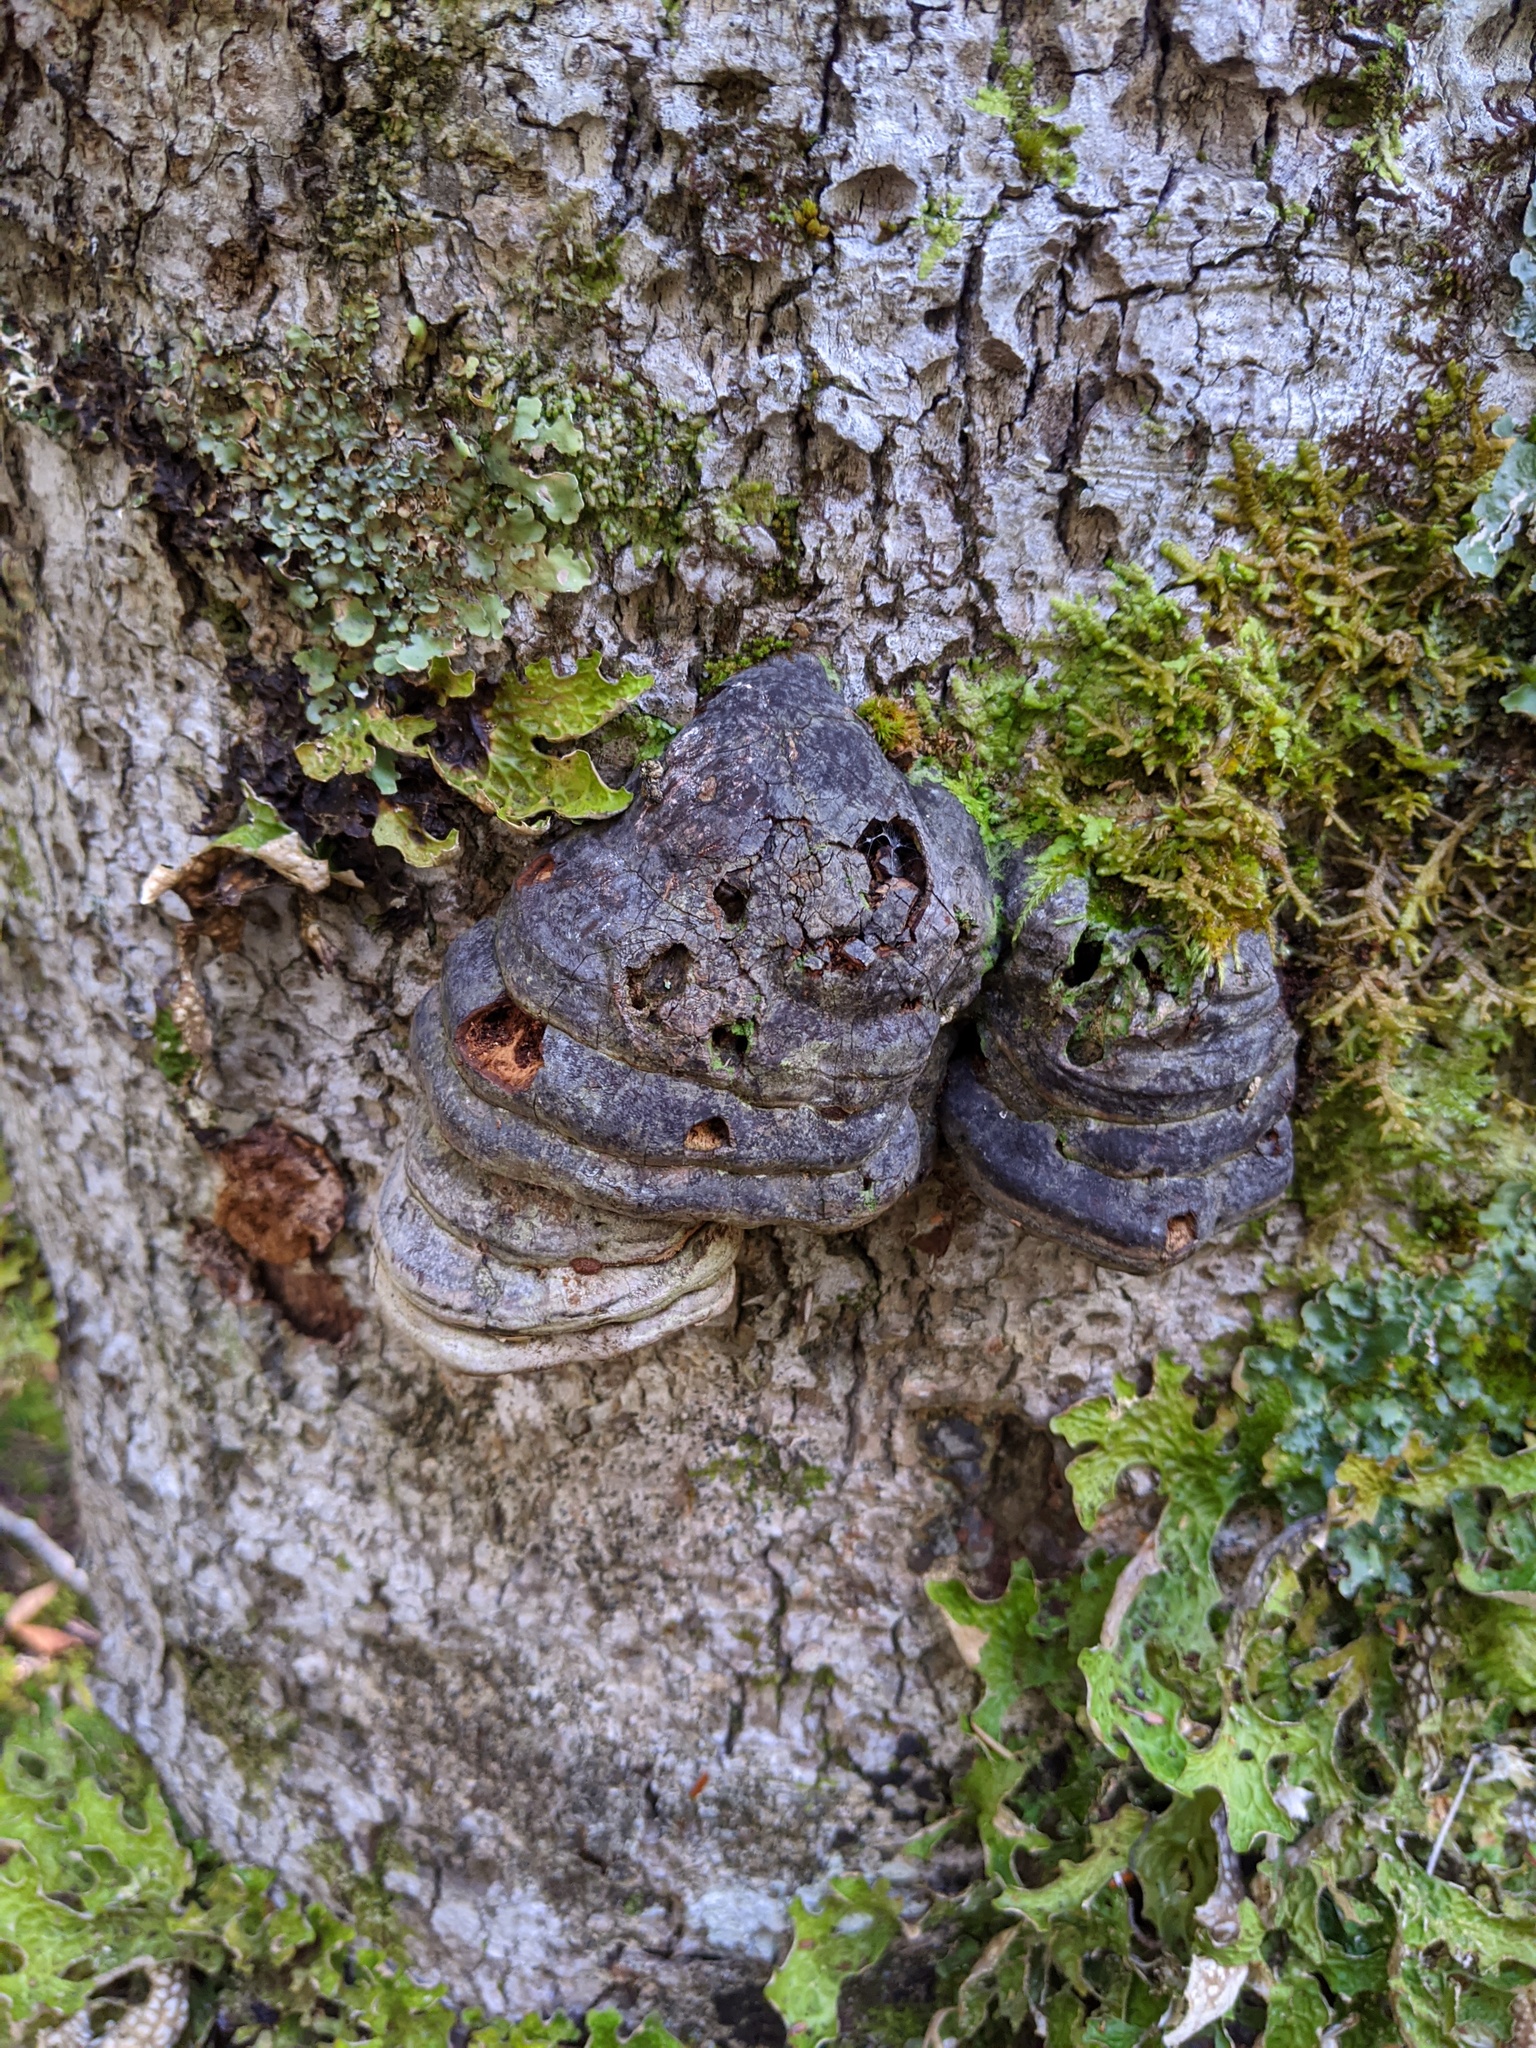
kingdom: Fungi
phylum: Basidiomycota
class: Agaricomycetes
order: Polyporales
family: Polyporaceae
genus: Fomes
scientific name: Fomes fomentarius
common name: Hoof fungus
